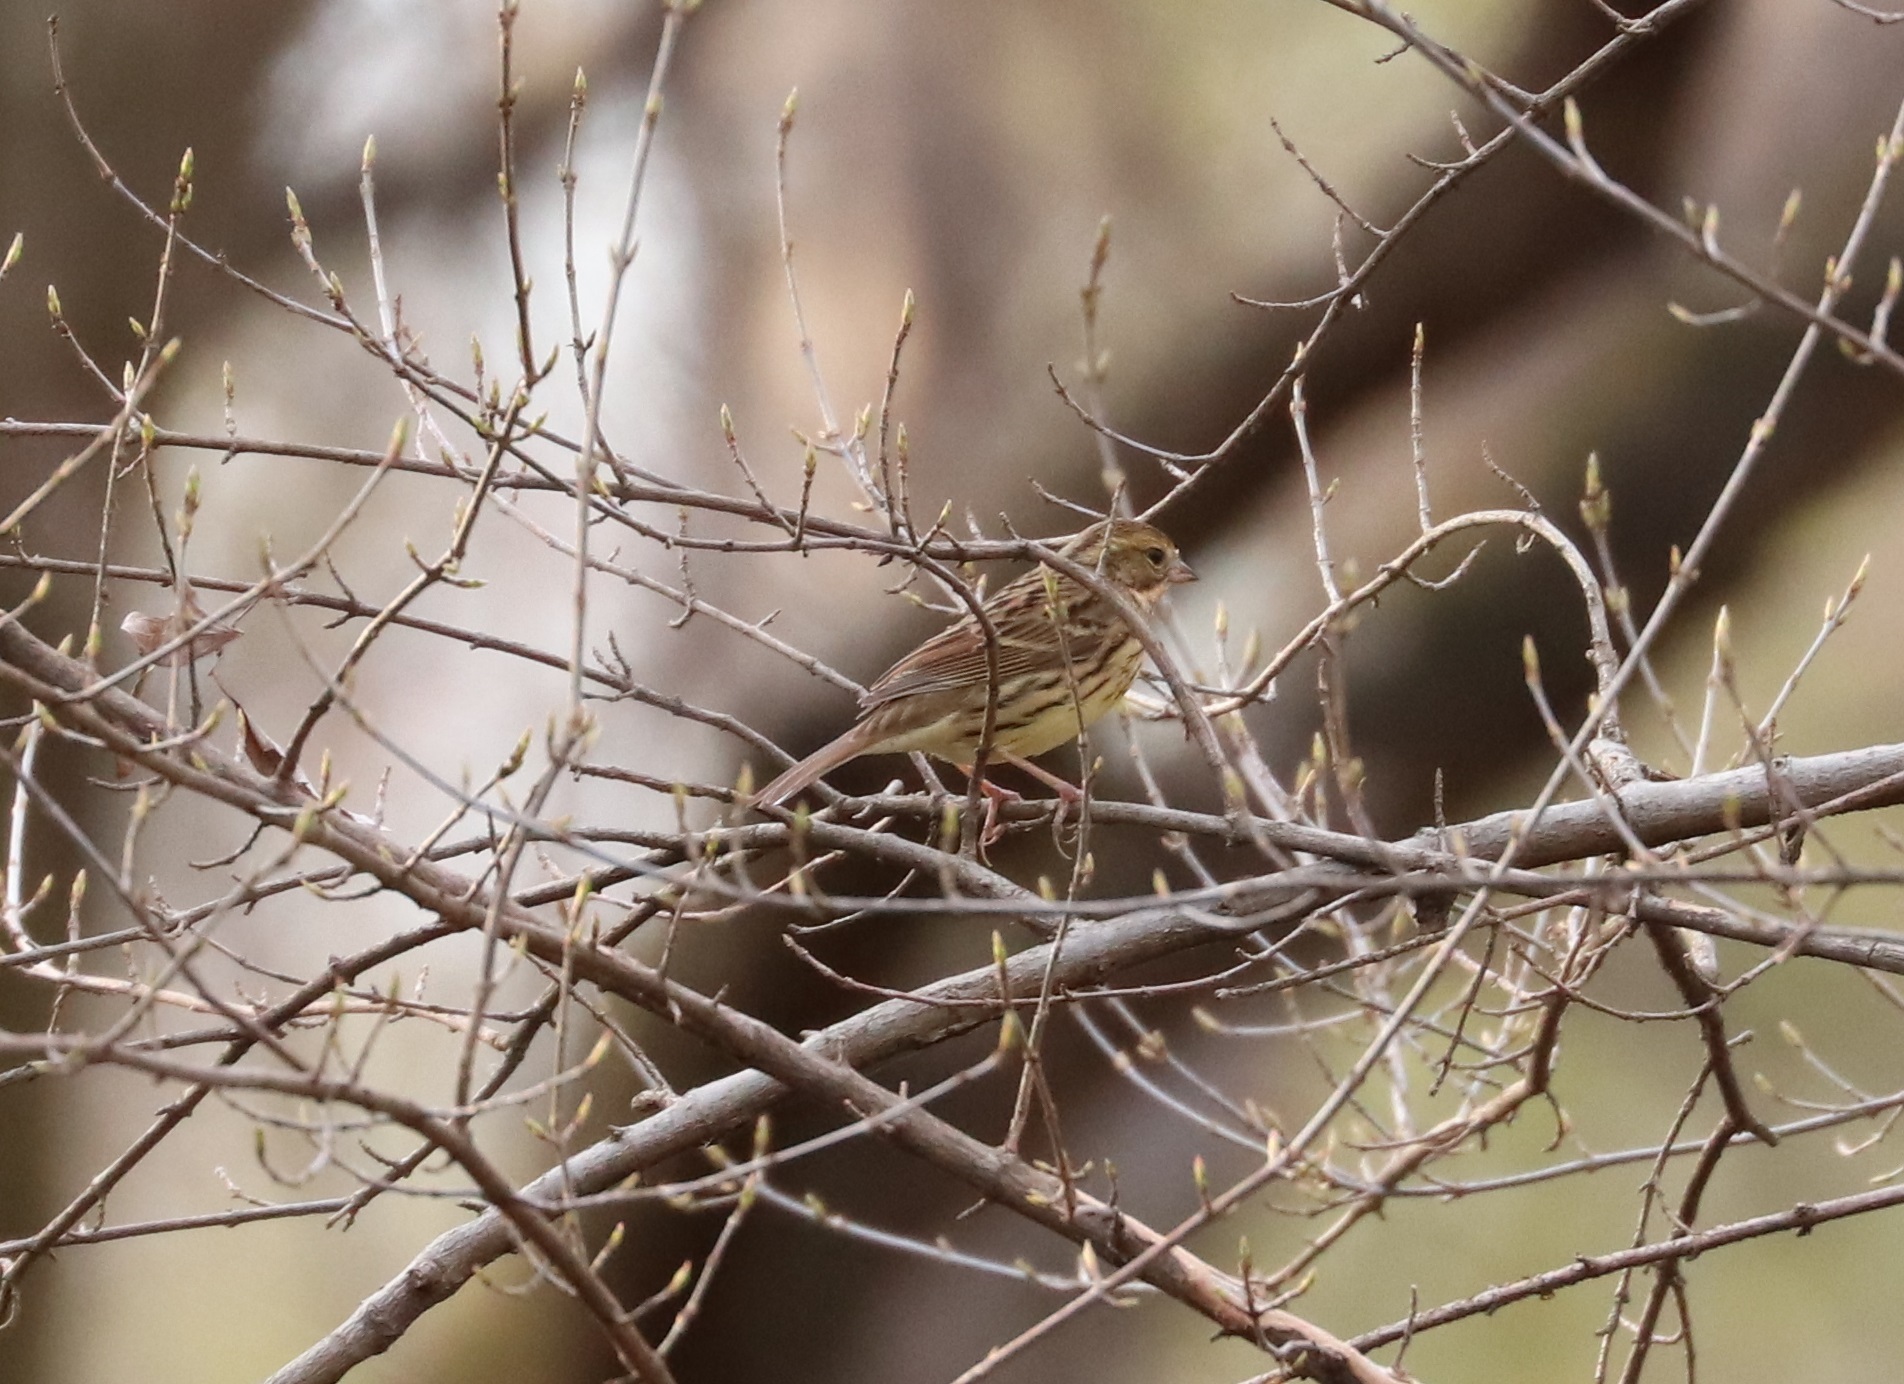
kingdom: Animalia
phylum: Chordata
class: Aves
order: Passeriformes
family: Emberizidae
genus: Emberiza
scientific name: Emberiza personata
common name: Masked bunting
